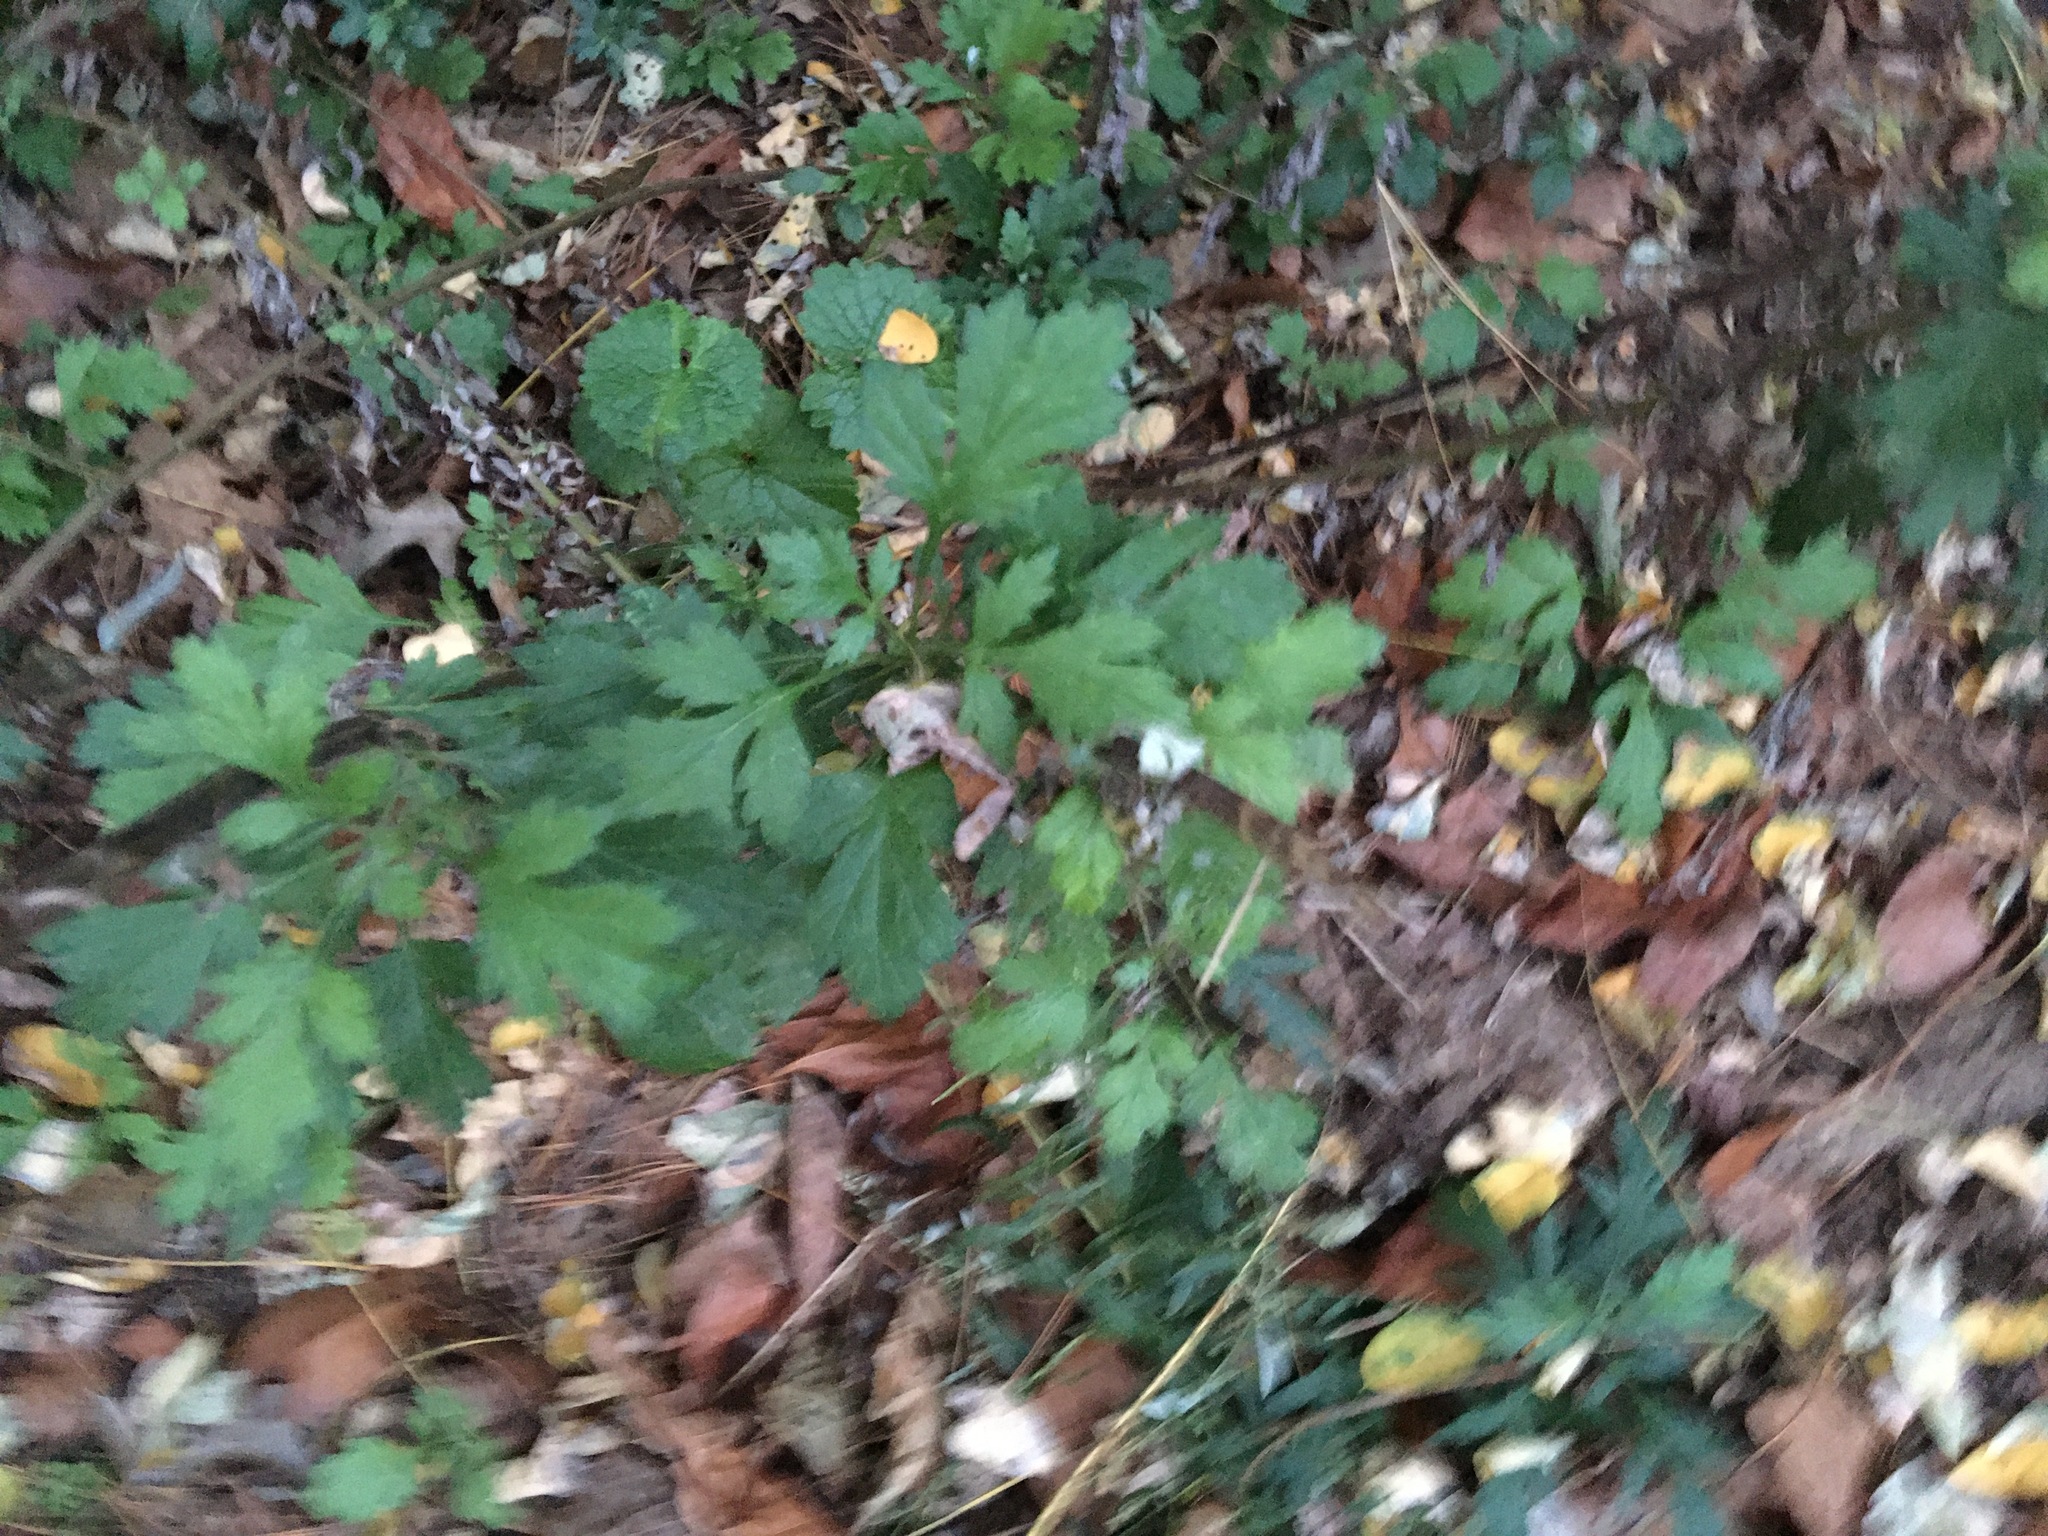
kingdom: Plantae
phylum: Tracheophyta
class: Magnoliopsida
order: Asterales
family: Asteraceae
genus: Artemisia
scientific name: Artemisia vulgaris
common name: Mugwort
